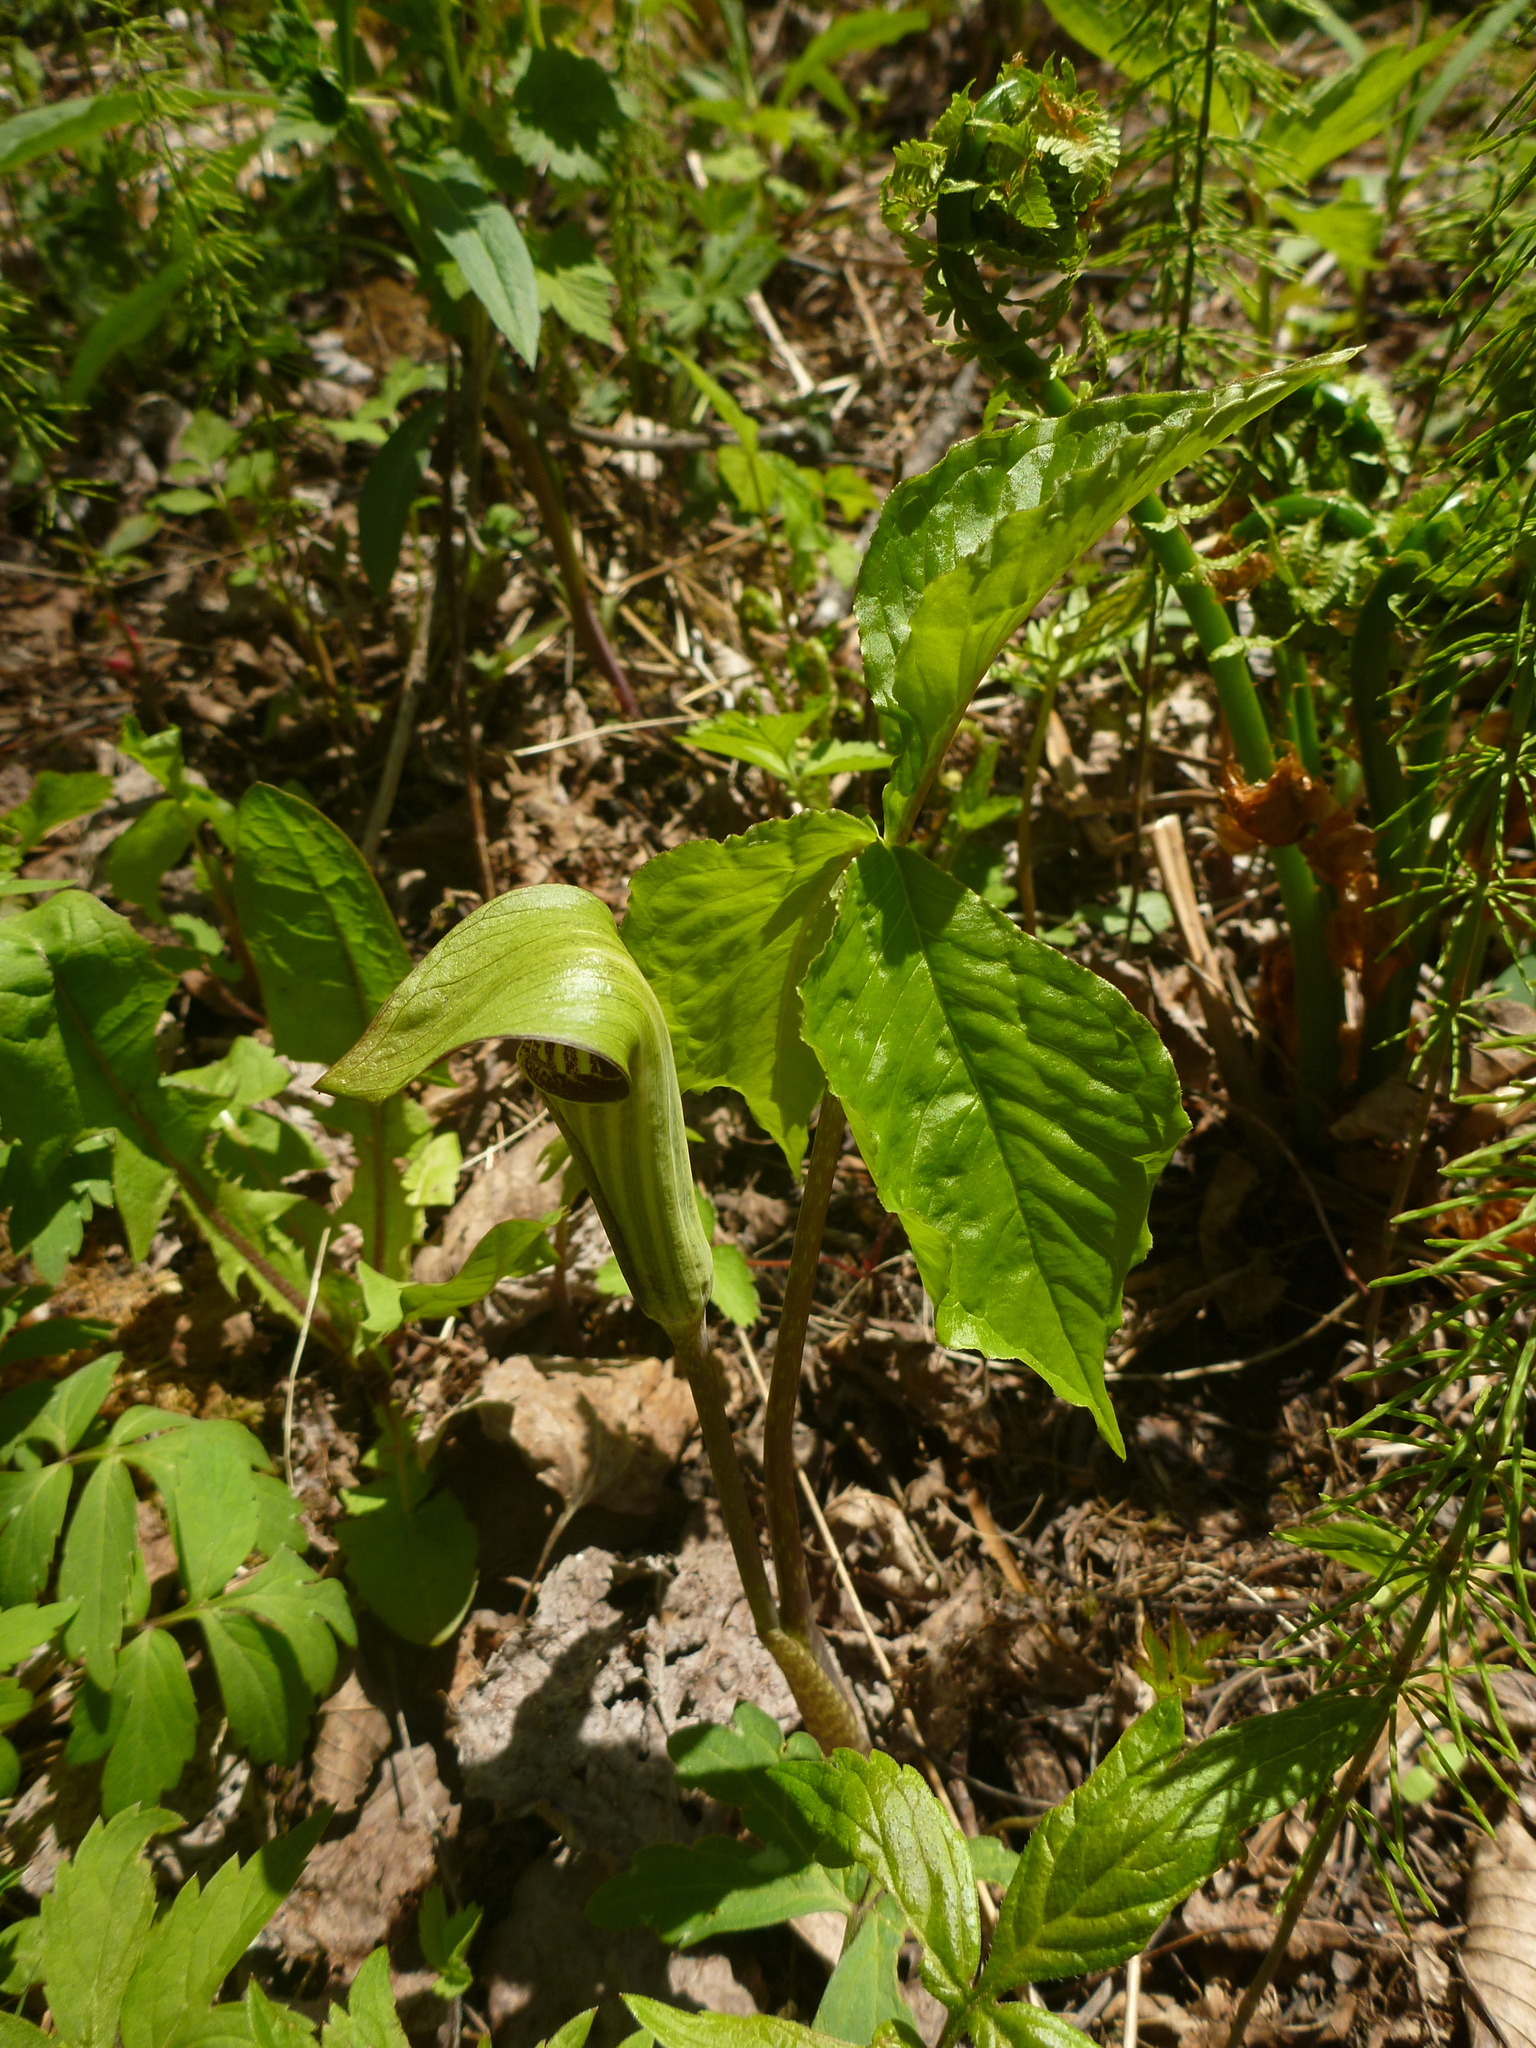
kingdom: Plantae
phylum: Tracheophyta
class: Liliopsida
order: Alismatales
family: Araceae
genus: Arisaema
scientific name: Arisaema triphyllum
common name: Jack-in-the-pulpit
